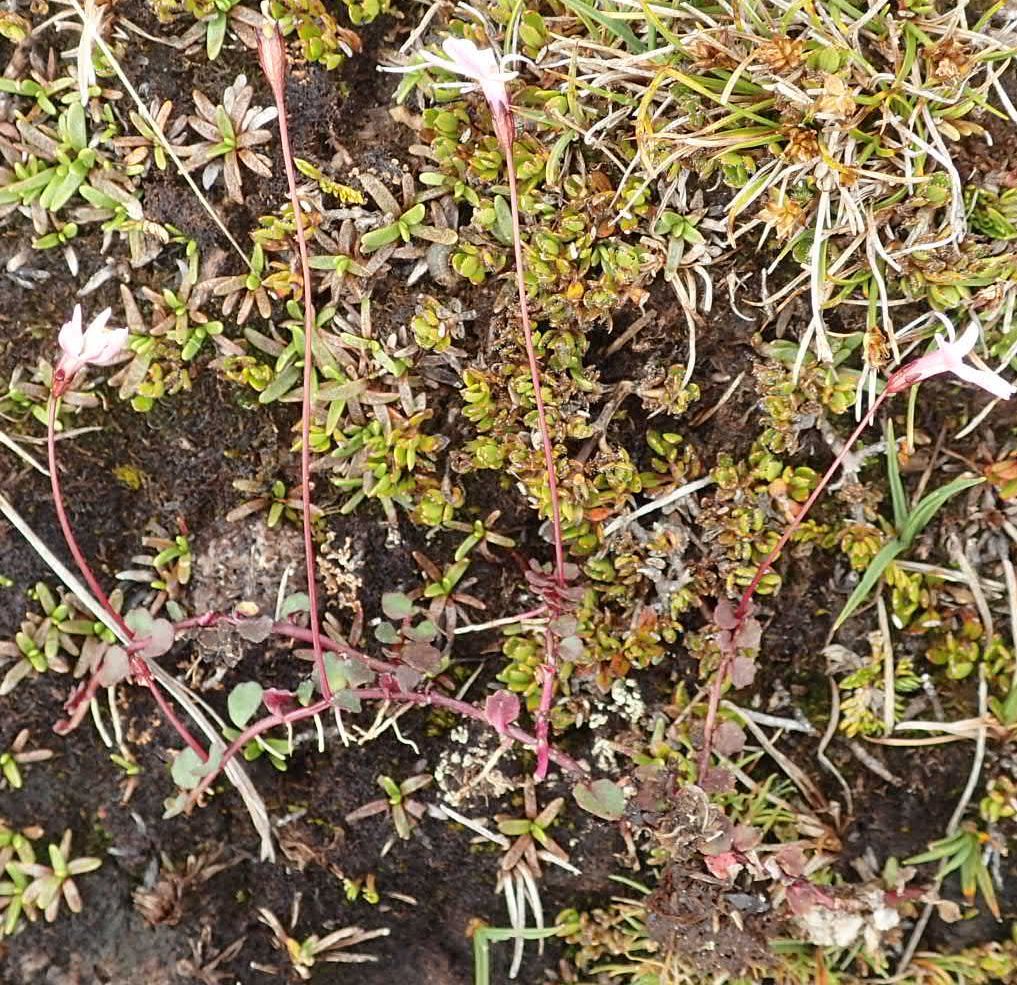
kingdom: Plantae
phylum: Tracheophyta
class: Magnoliopsida
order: Asterales
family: Campanulaceae
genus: Lobelia
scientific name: Lobelia angulata
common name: Lawn lobelia
